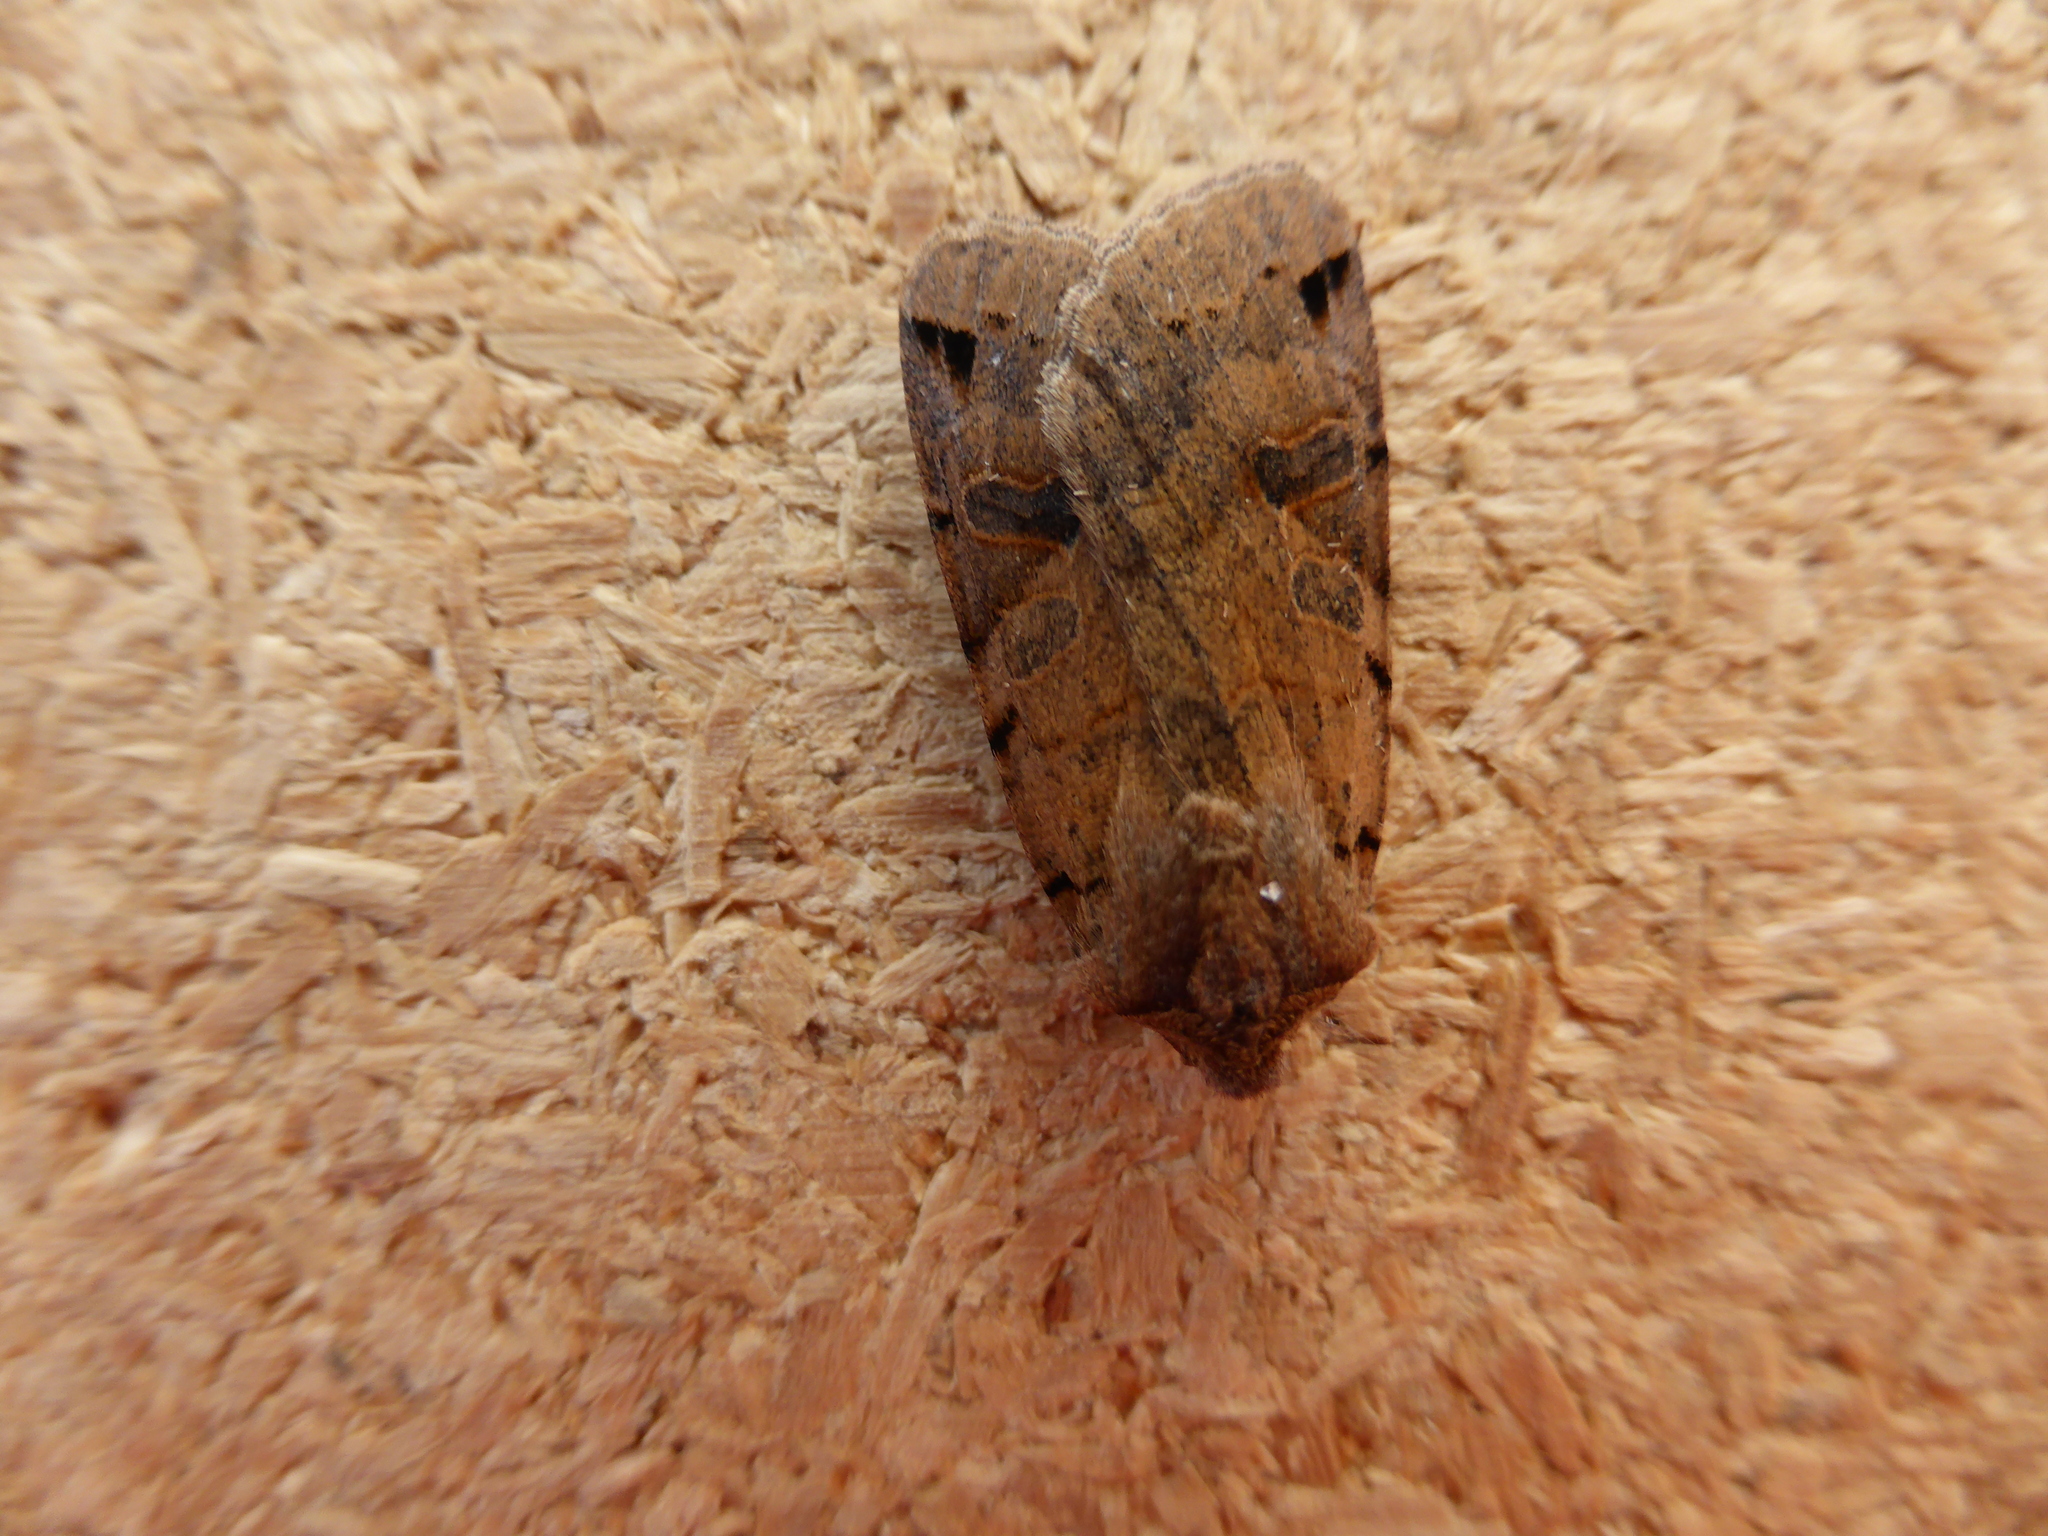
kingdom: Animalia
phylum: Arthropoda
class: Insecta
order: Lepidoptera
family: Noctuidae
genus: Agrochola
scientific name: Agrochola litura
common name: Brown-spot pinion
